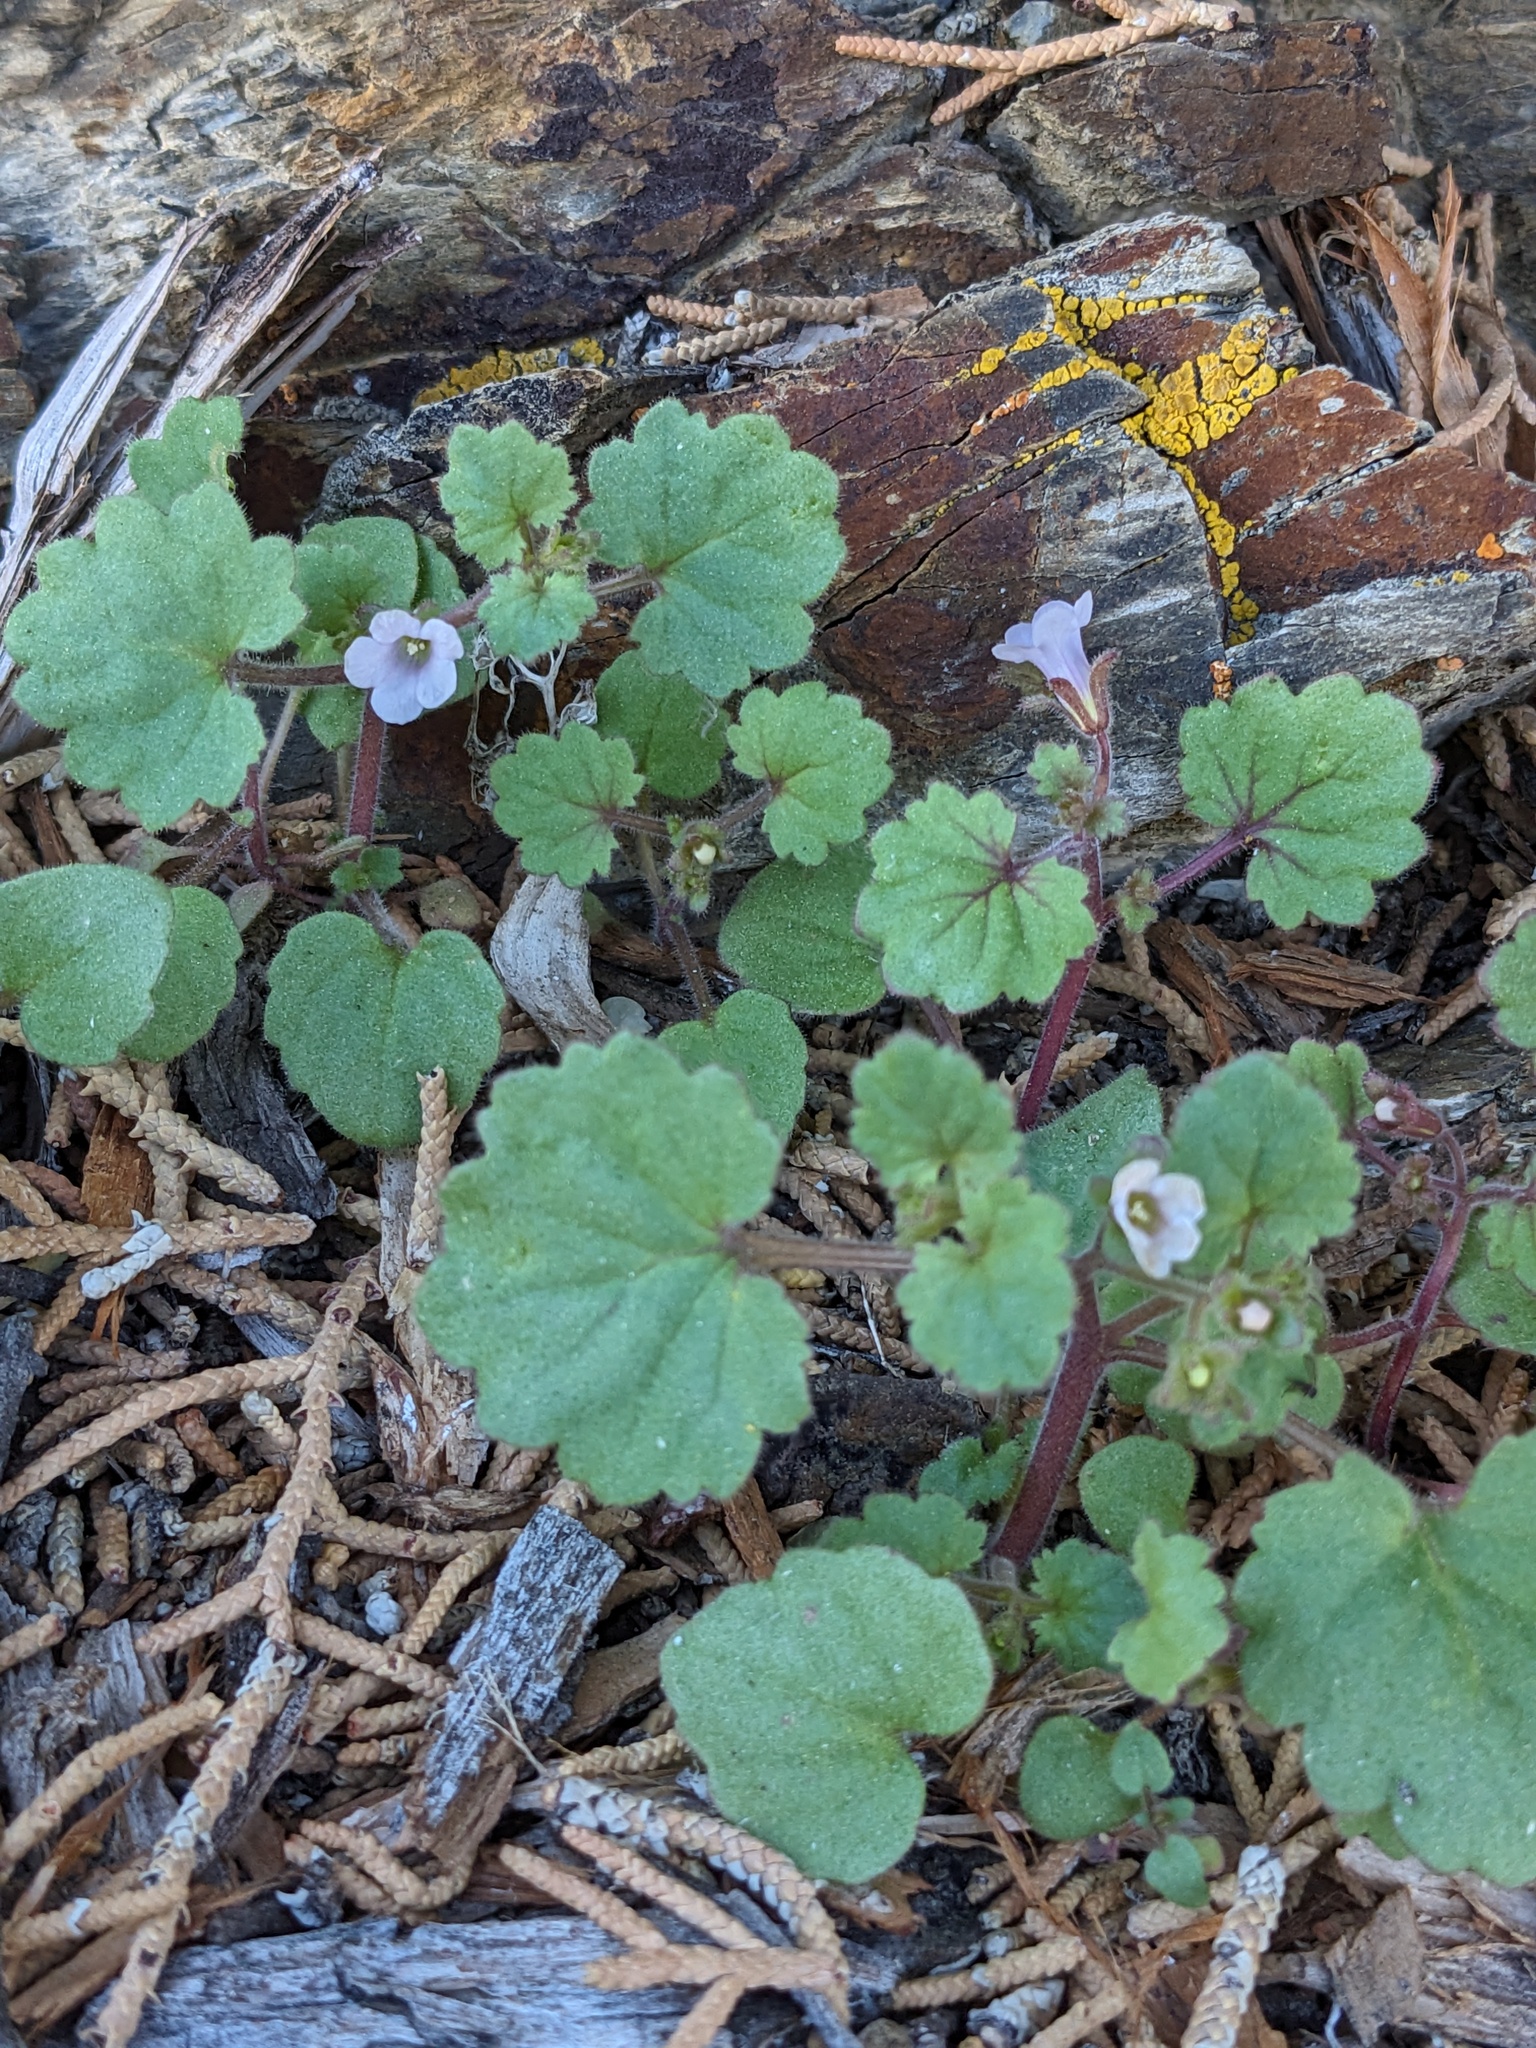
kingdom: Plantae
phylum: Tracheophyta
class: Magnoliopsida
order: Boraginales
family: Hydrophyllaceae
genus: Phacelia
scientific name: Phacelia peirsoniana
